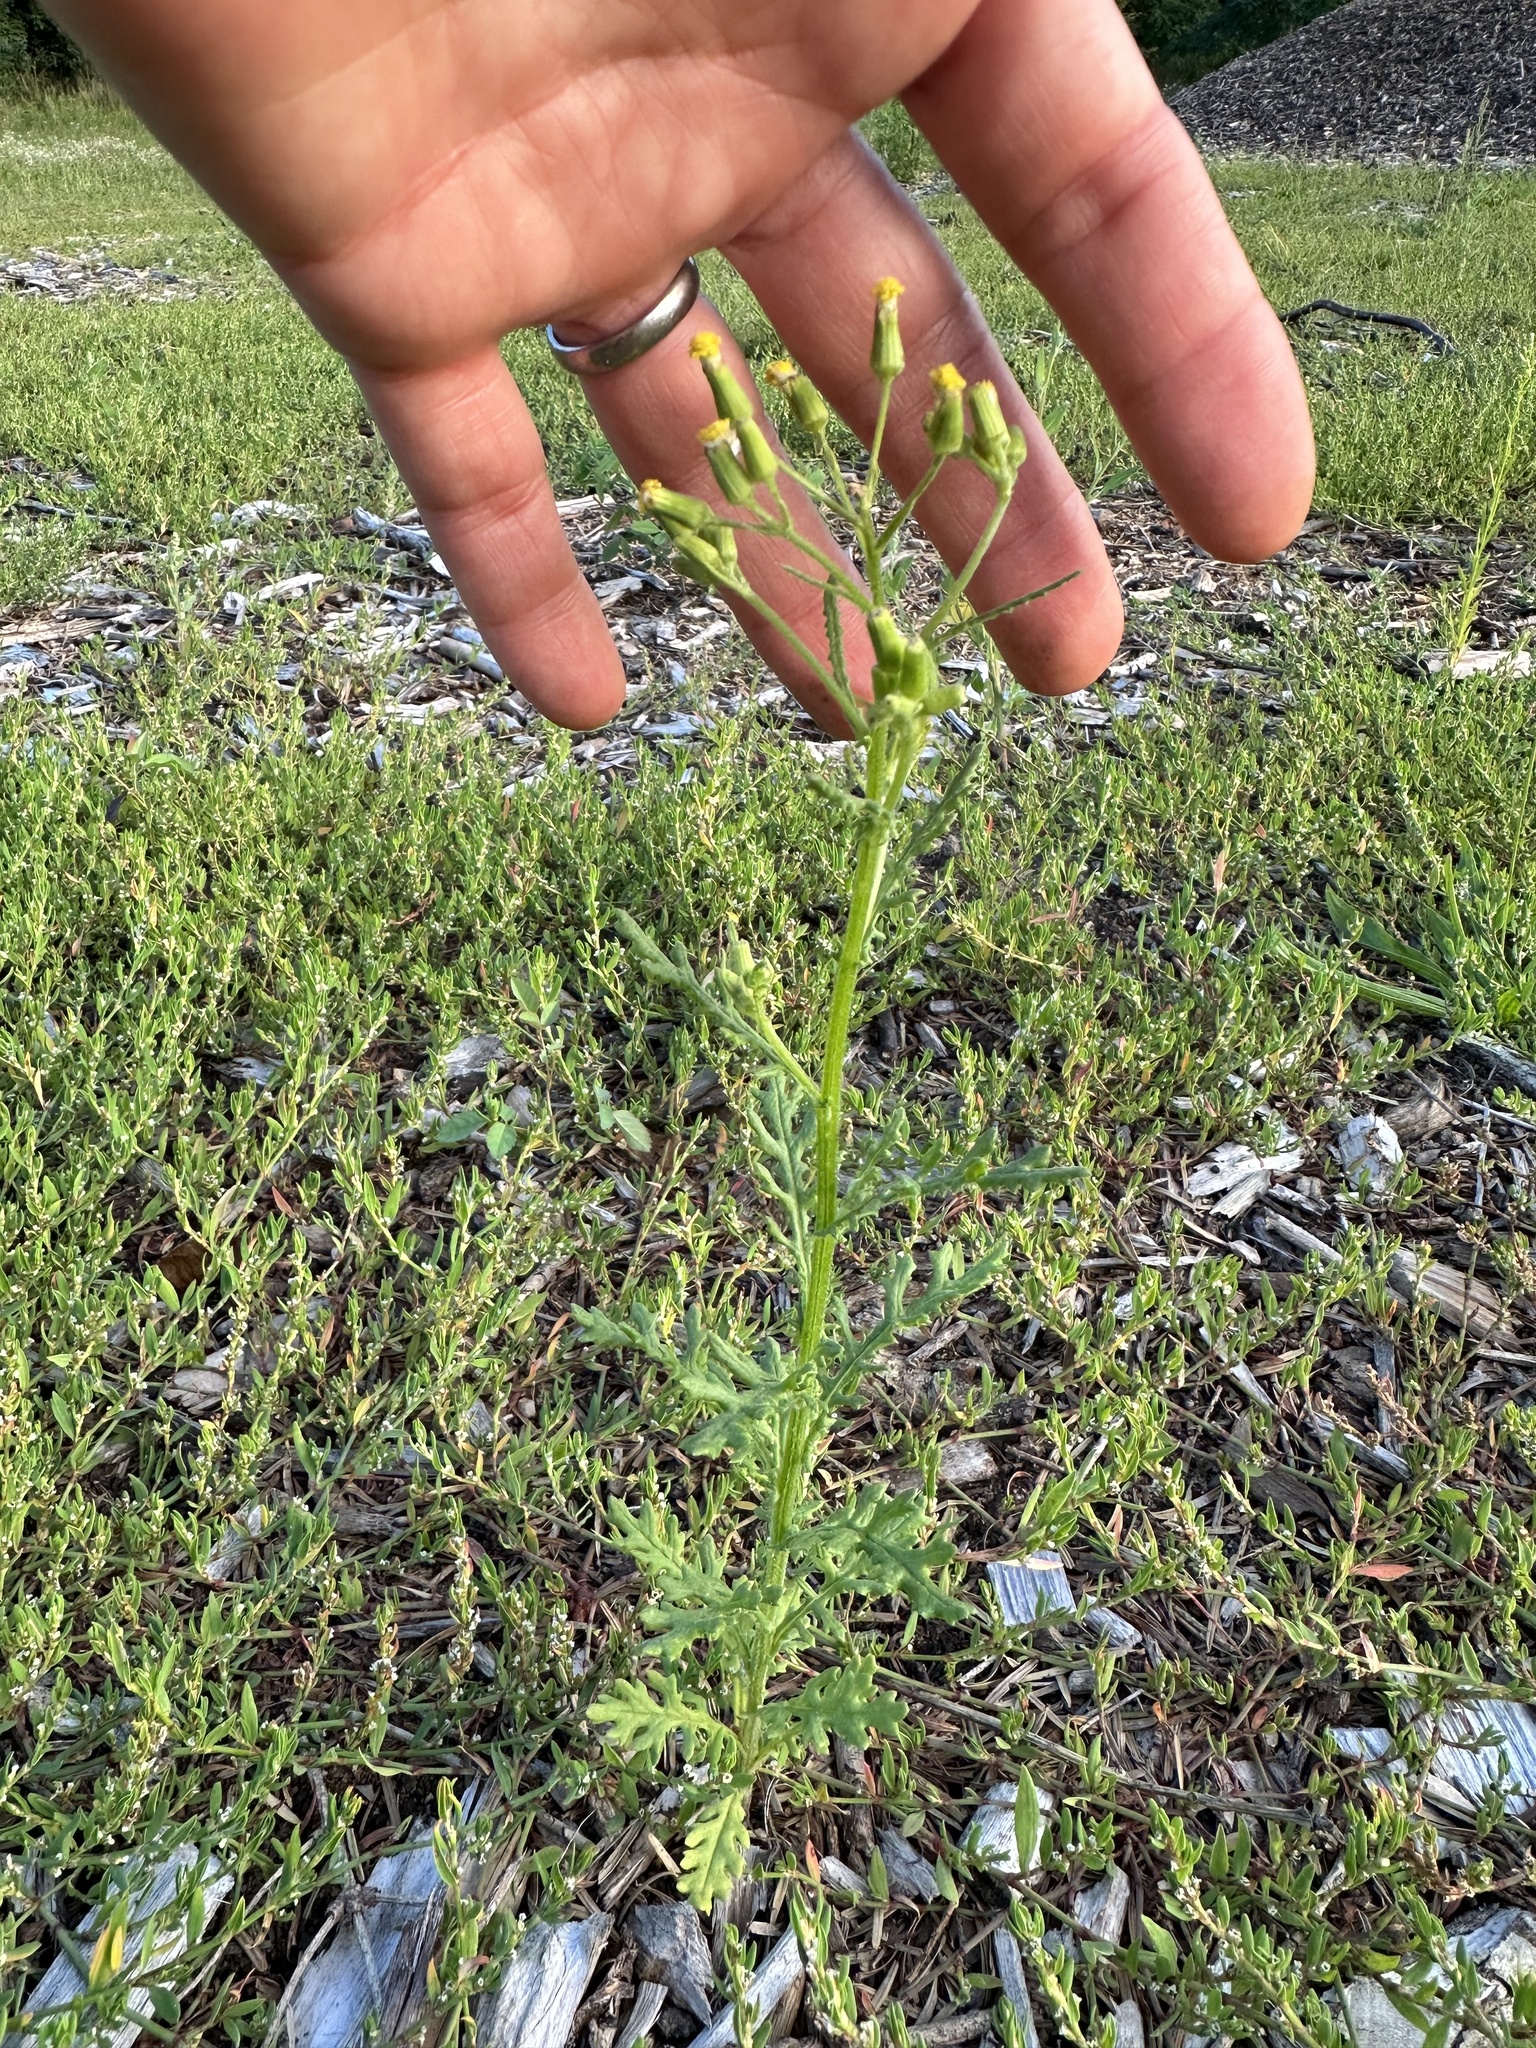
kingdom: Plantae
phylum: Tracheophyta
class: Magnoliopsida
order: Asterales
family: Asteraceae
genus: Senecio
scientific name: Senecio sylvaticus
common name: Woodland ragwort
